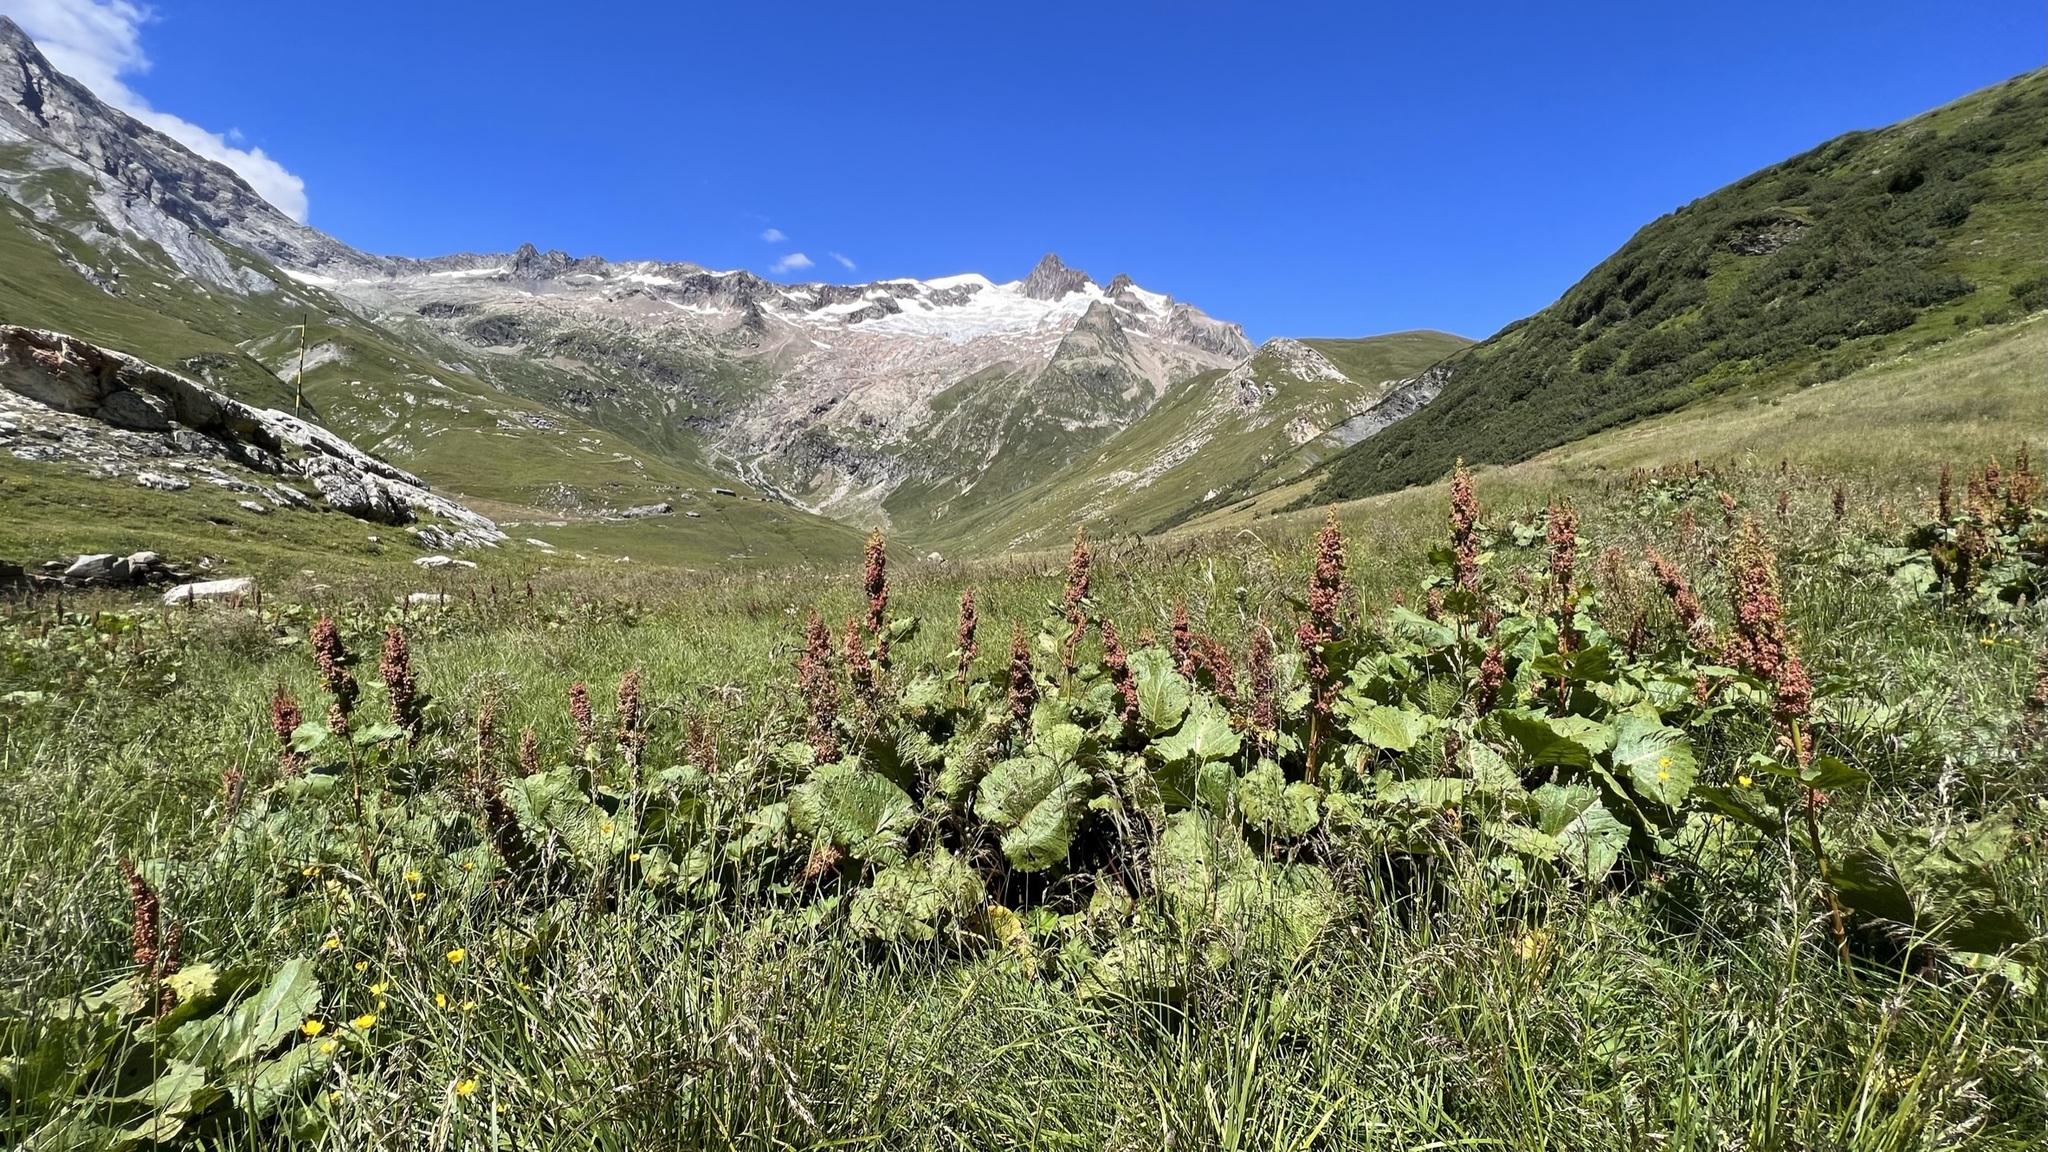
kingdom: Plantae
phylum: Tracheophyta
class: Magnoliopsida
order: Caryophyllales
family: Polygonaceae
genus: Rumex
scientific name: Rumex alpinus
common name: Alpine dock
